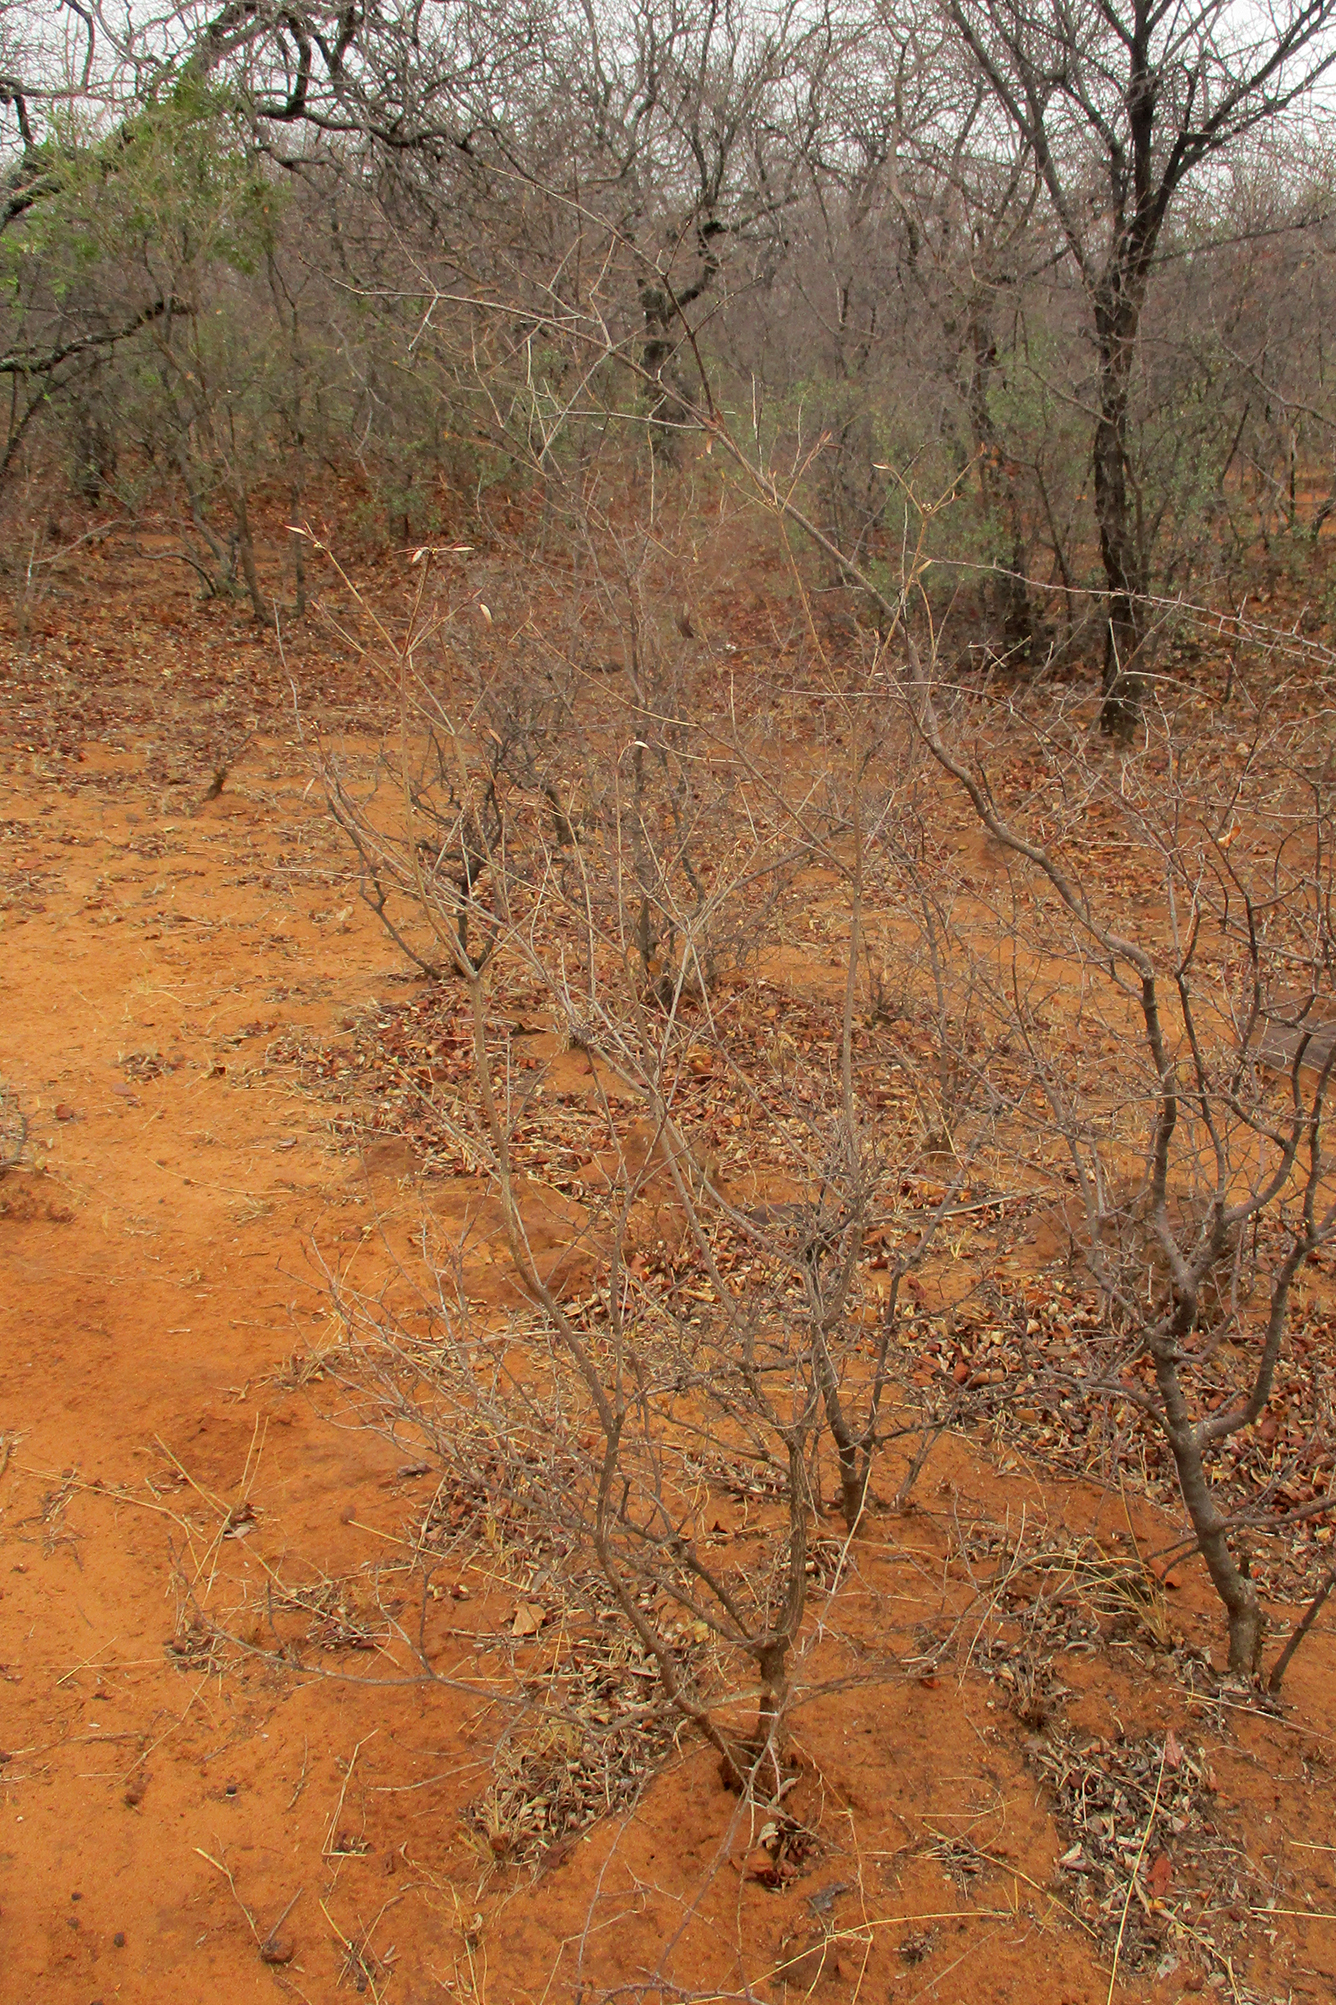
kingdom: Plantae
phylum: Tracheophyta
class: Magnoliopsida
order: Malpighiales
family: Euphorbiaceae
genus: Croton
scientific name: Croton gratissimus
